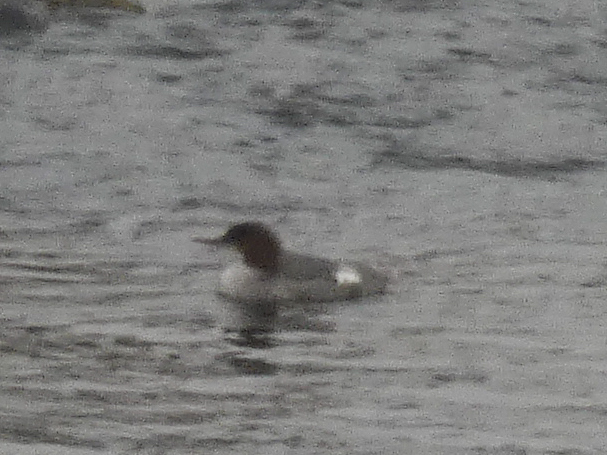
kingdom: Animalia
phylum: Chordata
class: Aves
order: Anseriformes
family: Anatidae
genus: Mergus
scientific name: Mergus merganser
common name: Common merganser
